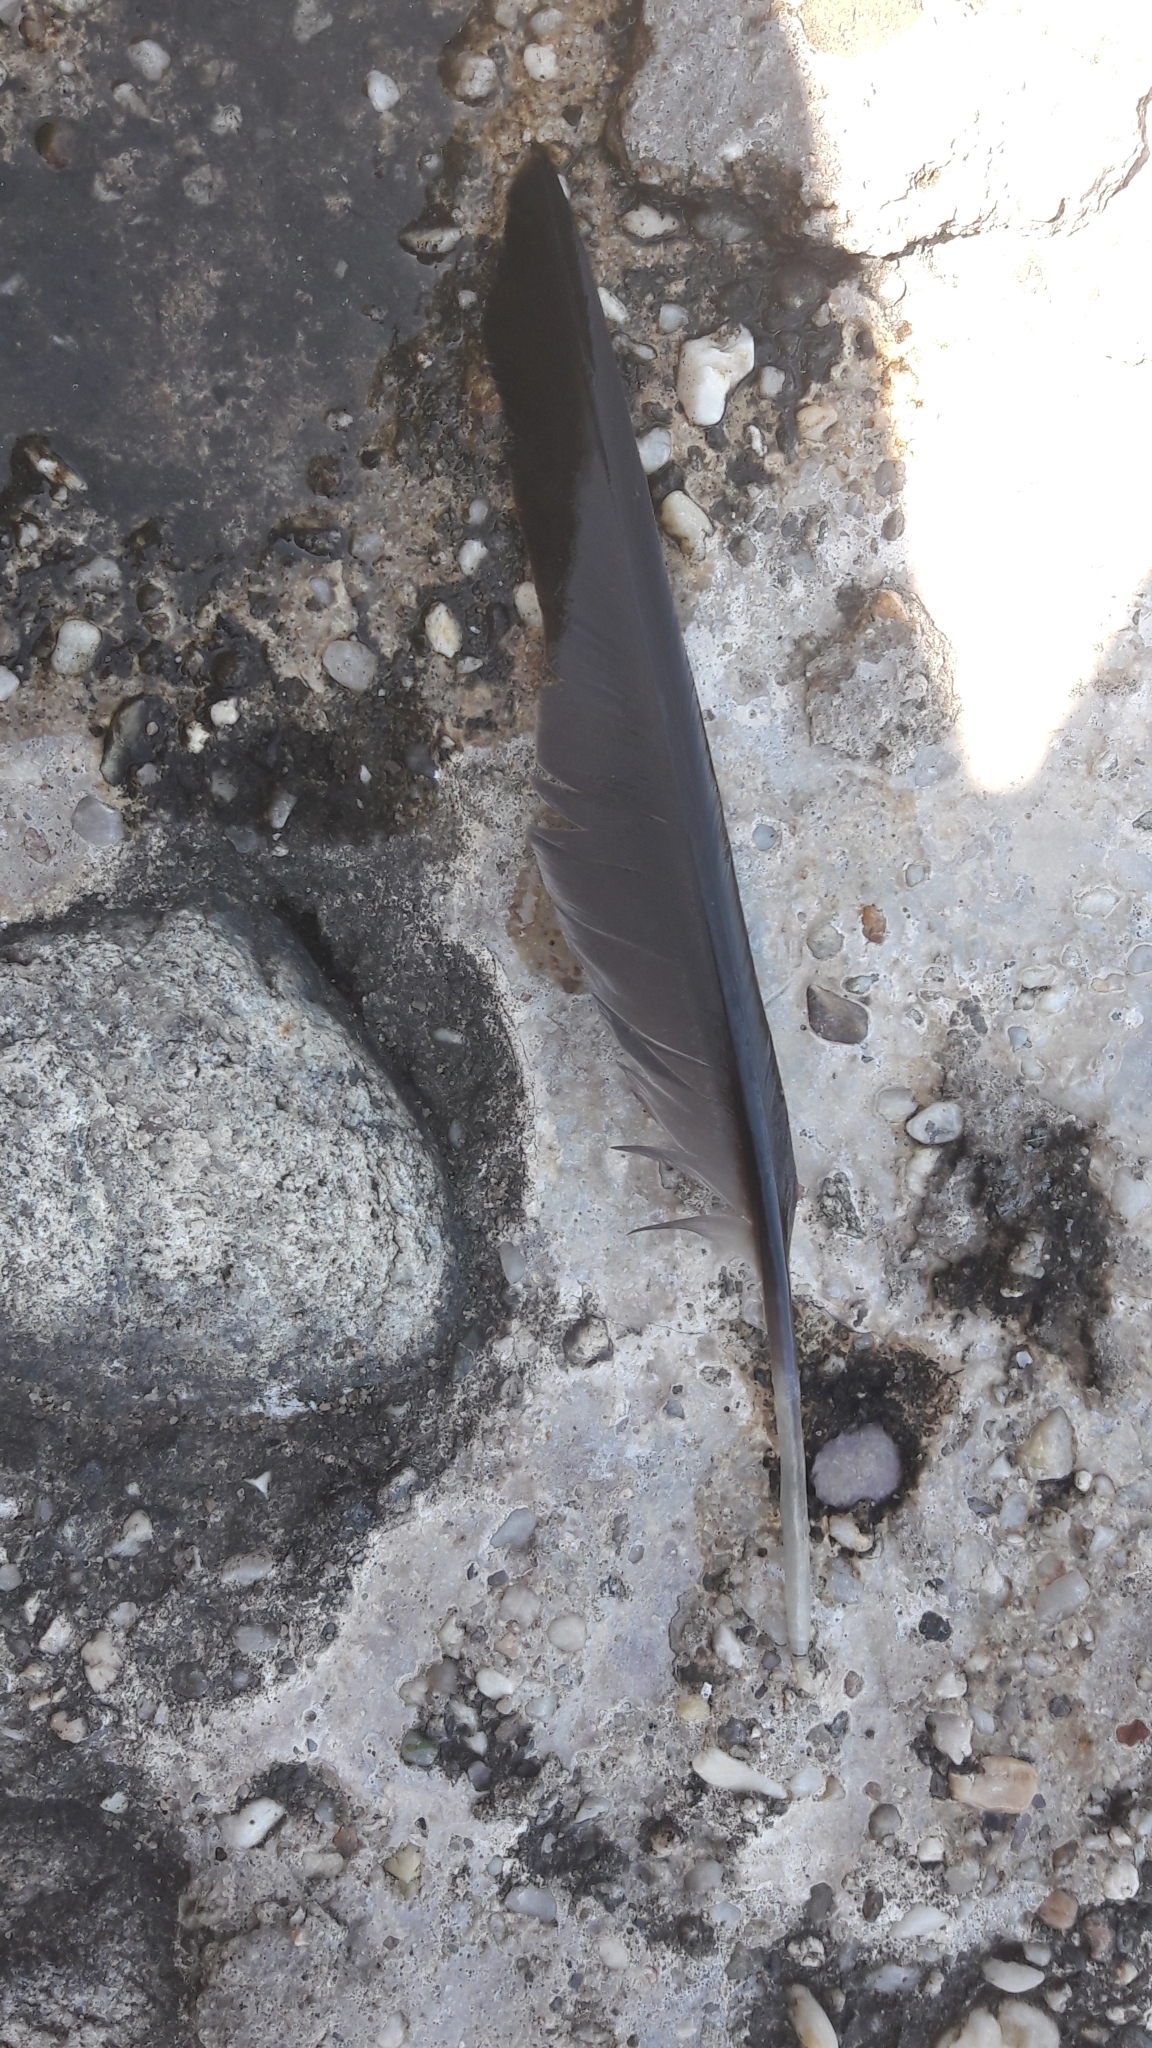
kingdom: Animalia
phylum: Chordata
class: Aves
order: Suliformes
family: Phalacrocoracidae
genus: Phalacrocorax
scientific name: Phalacrocorax auritus
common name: Double-crested cormorant
